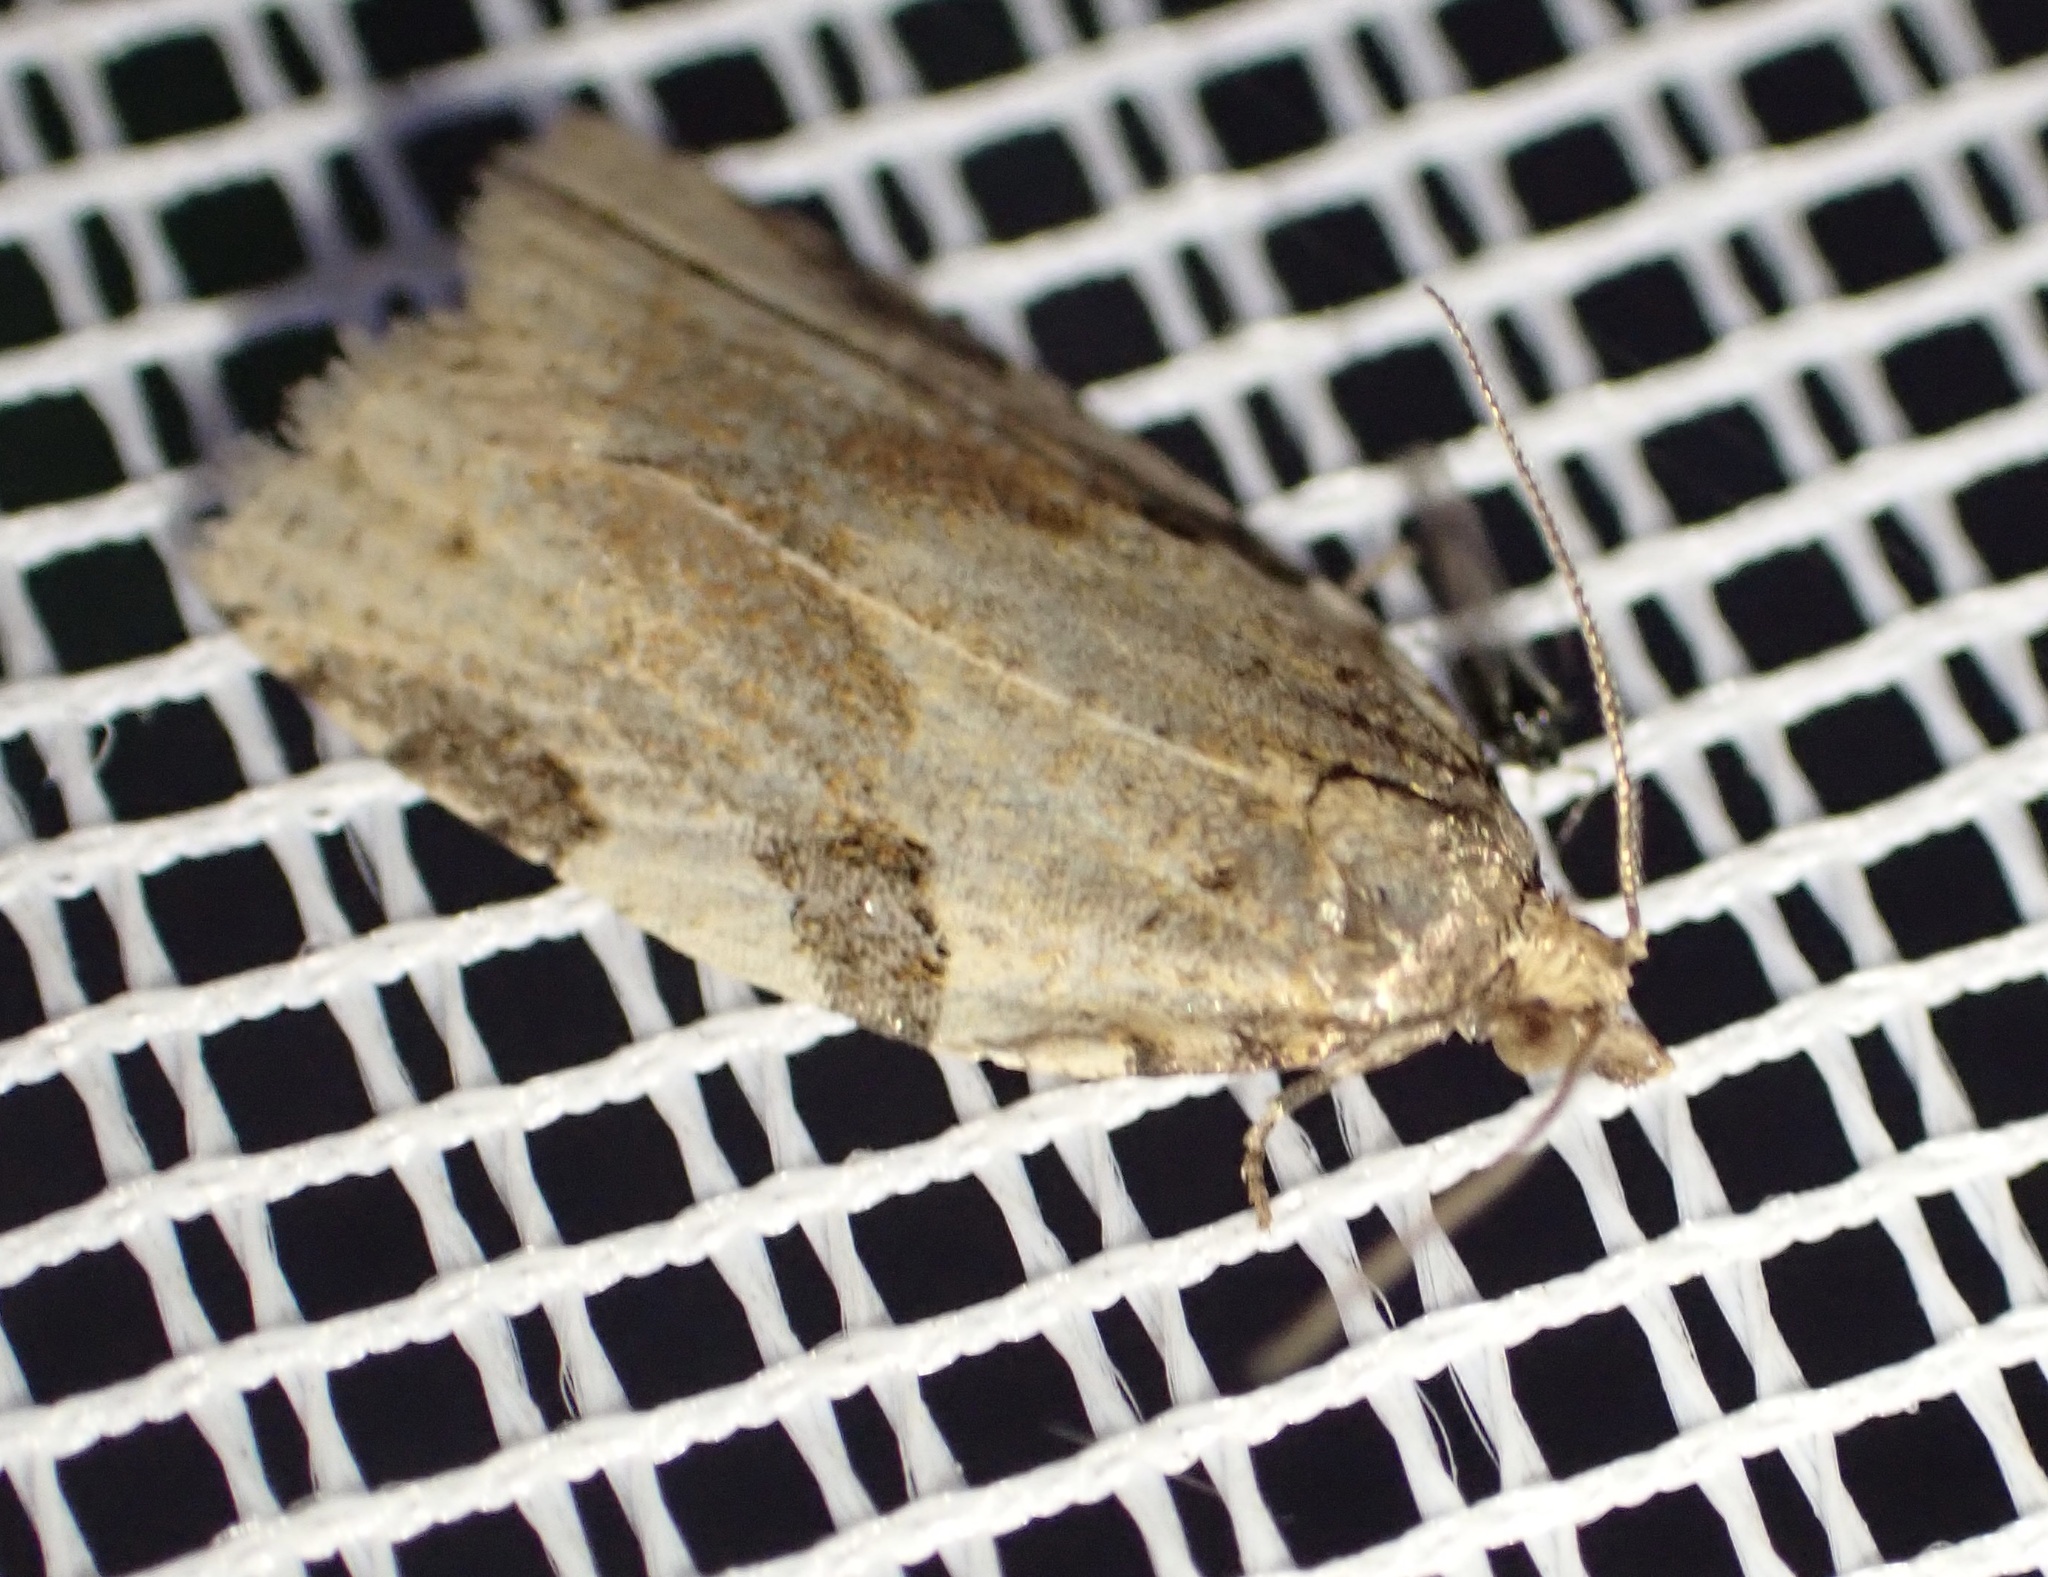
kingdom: Animalia
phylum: Arthropoda
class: Insecta
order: Lepidoptera
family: Tortricidae
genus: Clepsis
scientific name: Clepsis spectrana
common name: Cyclamen tortrix
